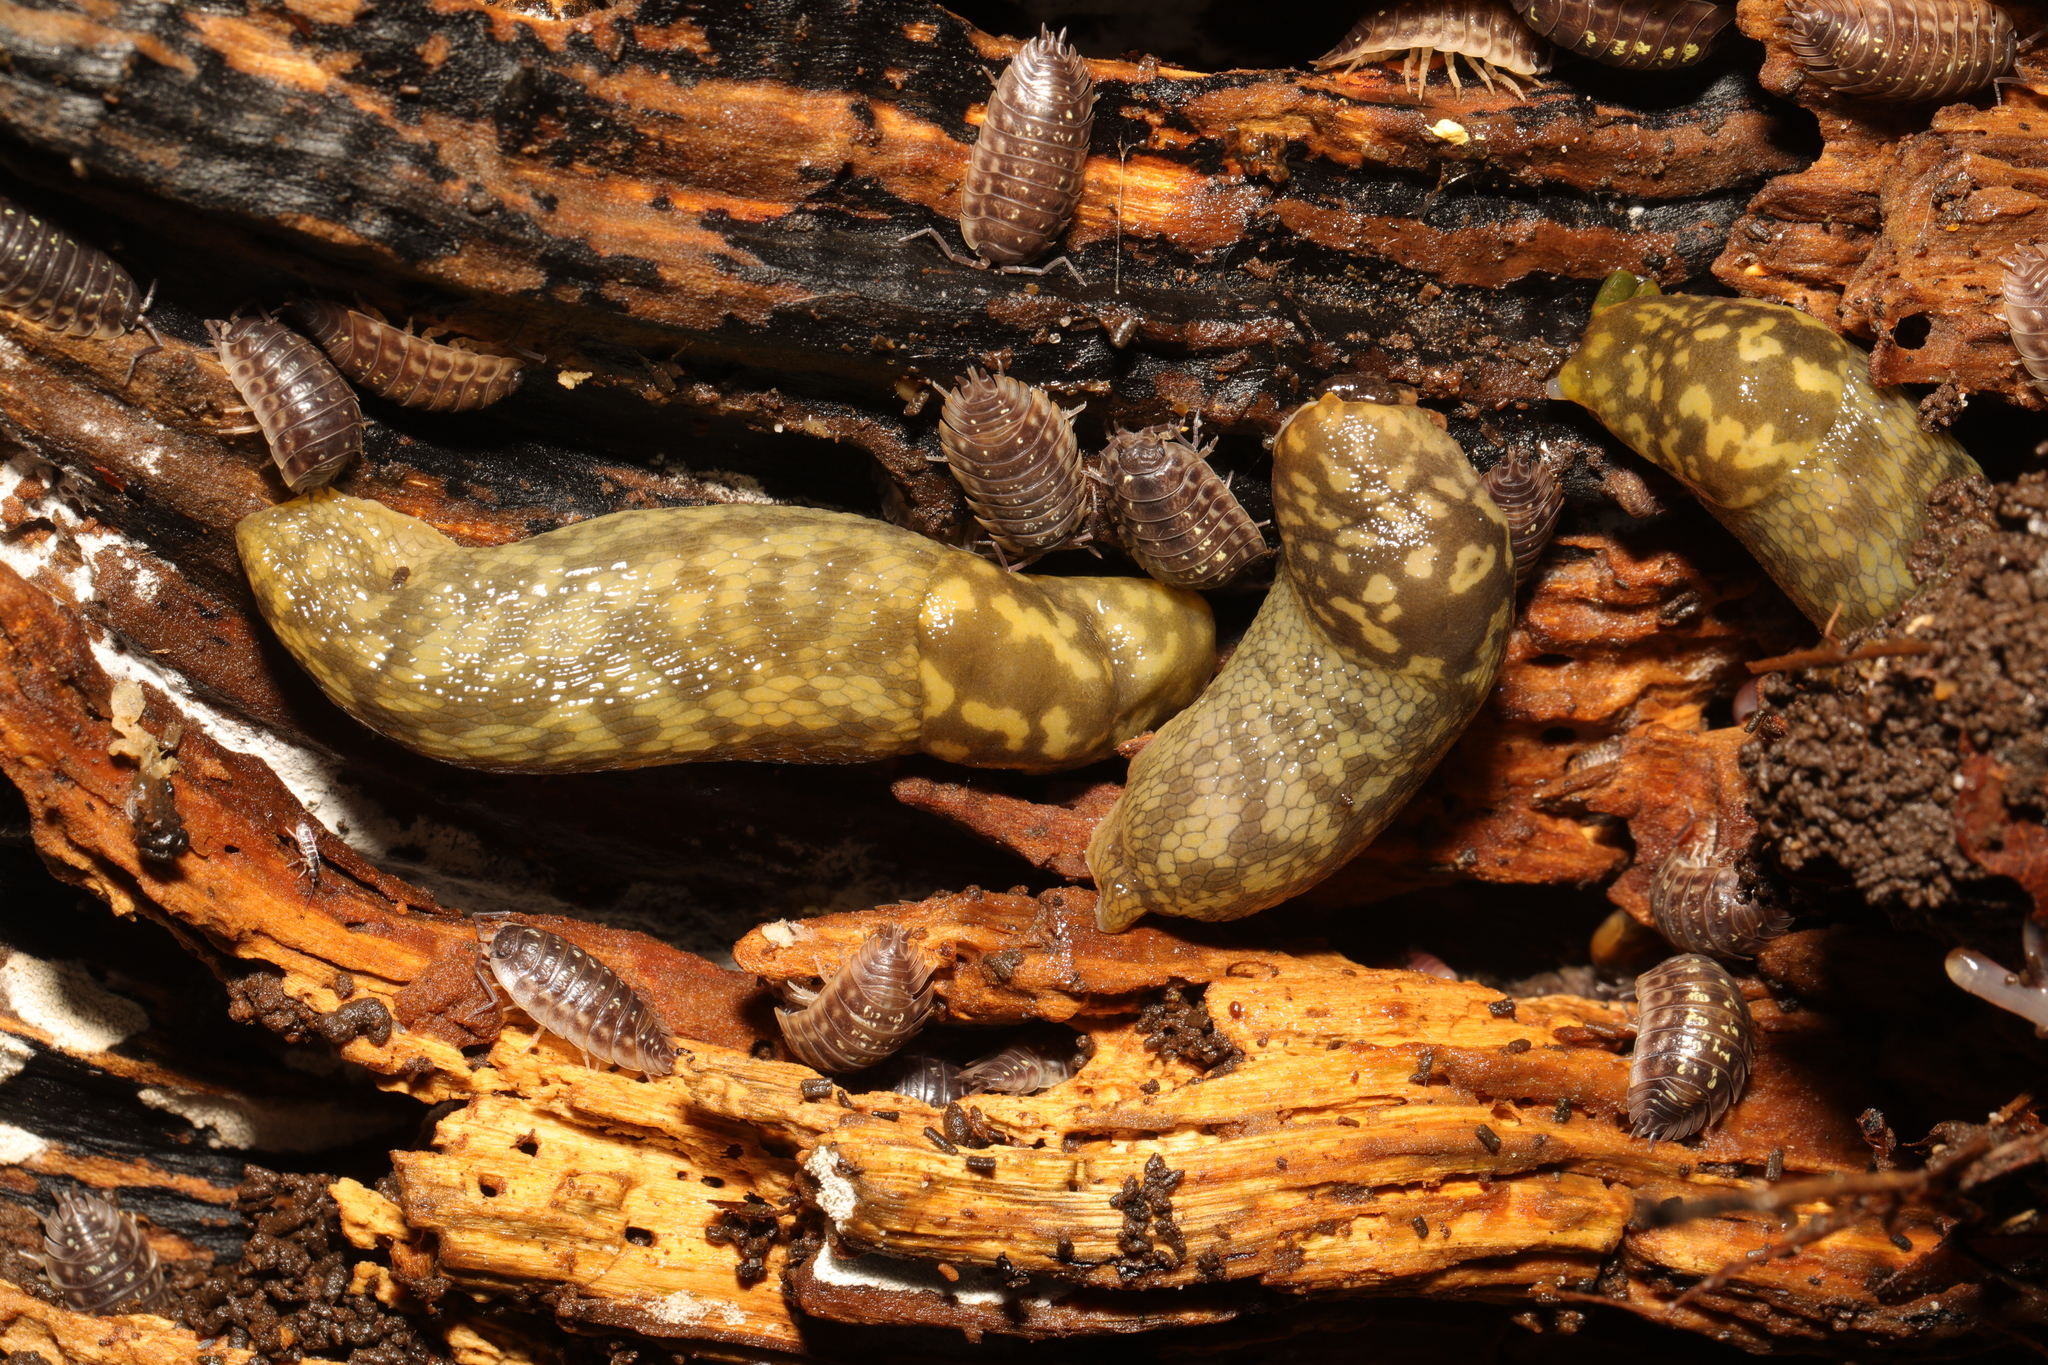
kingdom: Animalia
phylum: Mollusca
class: Gastropoda
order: Stylommatophora
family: Limacidae
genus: Limacus
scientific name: Limacus maculatus
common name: Irish yellow slug
